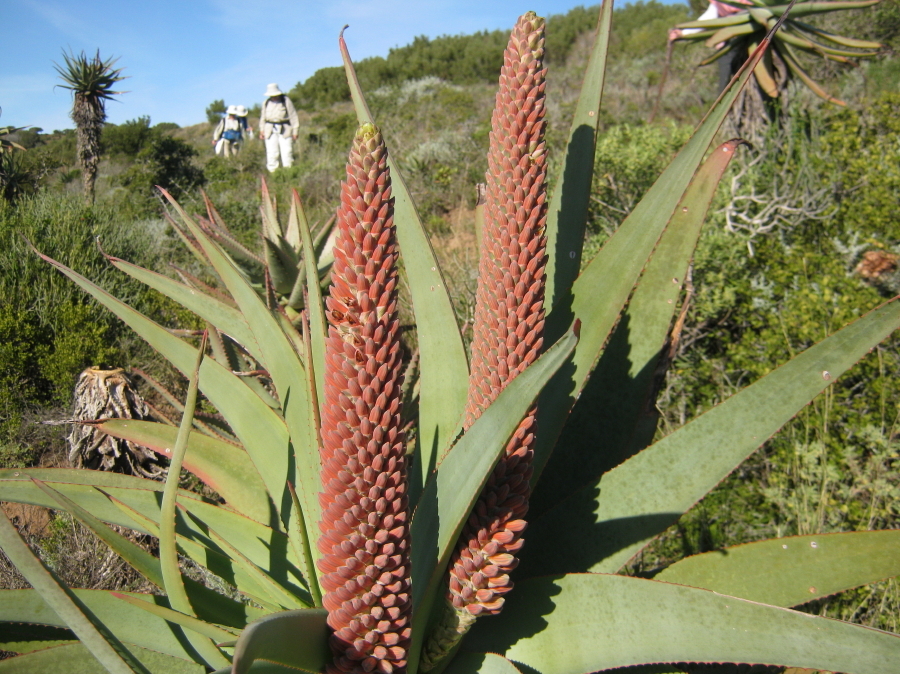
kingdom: Plantae
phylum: Tracheophyta
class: Liliopsida
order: Asparagales
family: Asphodelaceae
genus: Aloe
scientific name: Aloe speciosa
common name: Beautiful aloe
